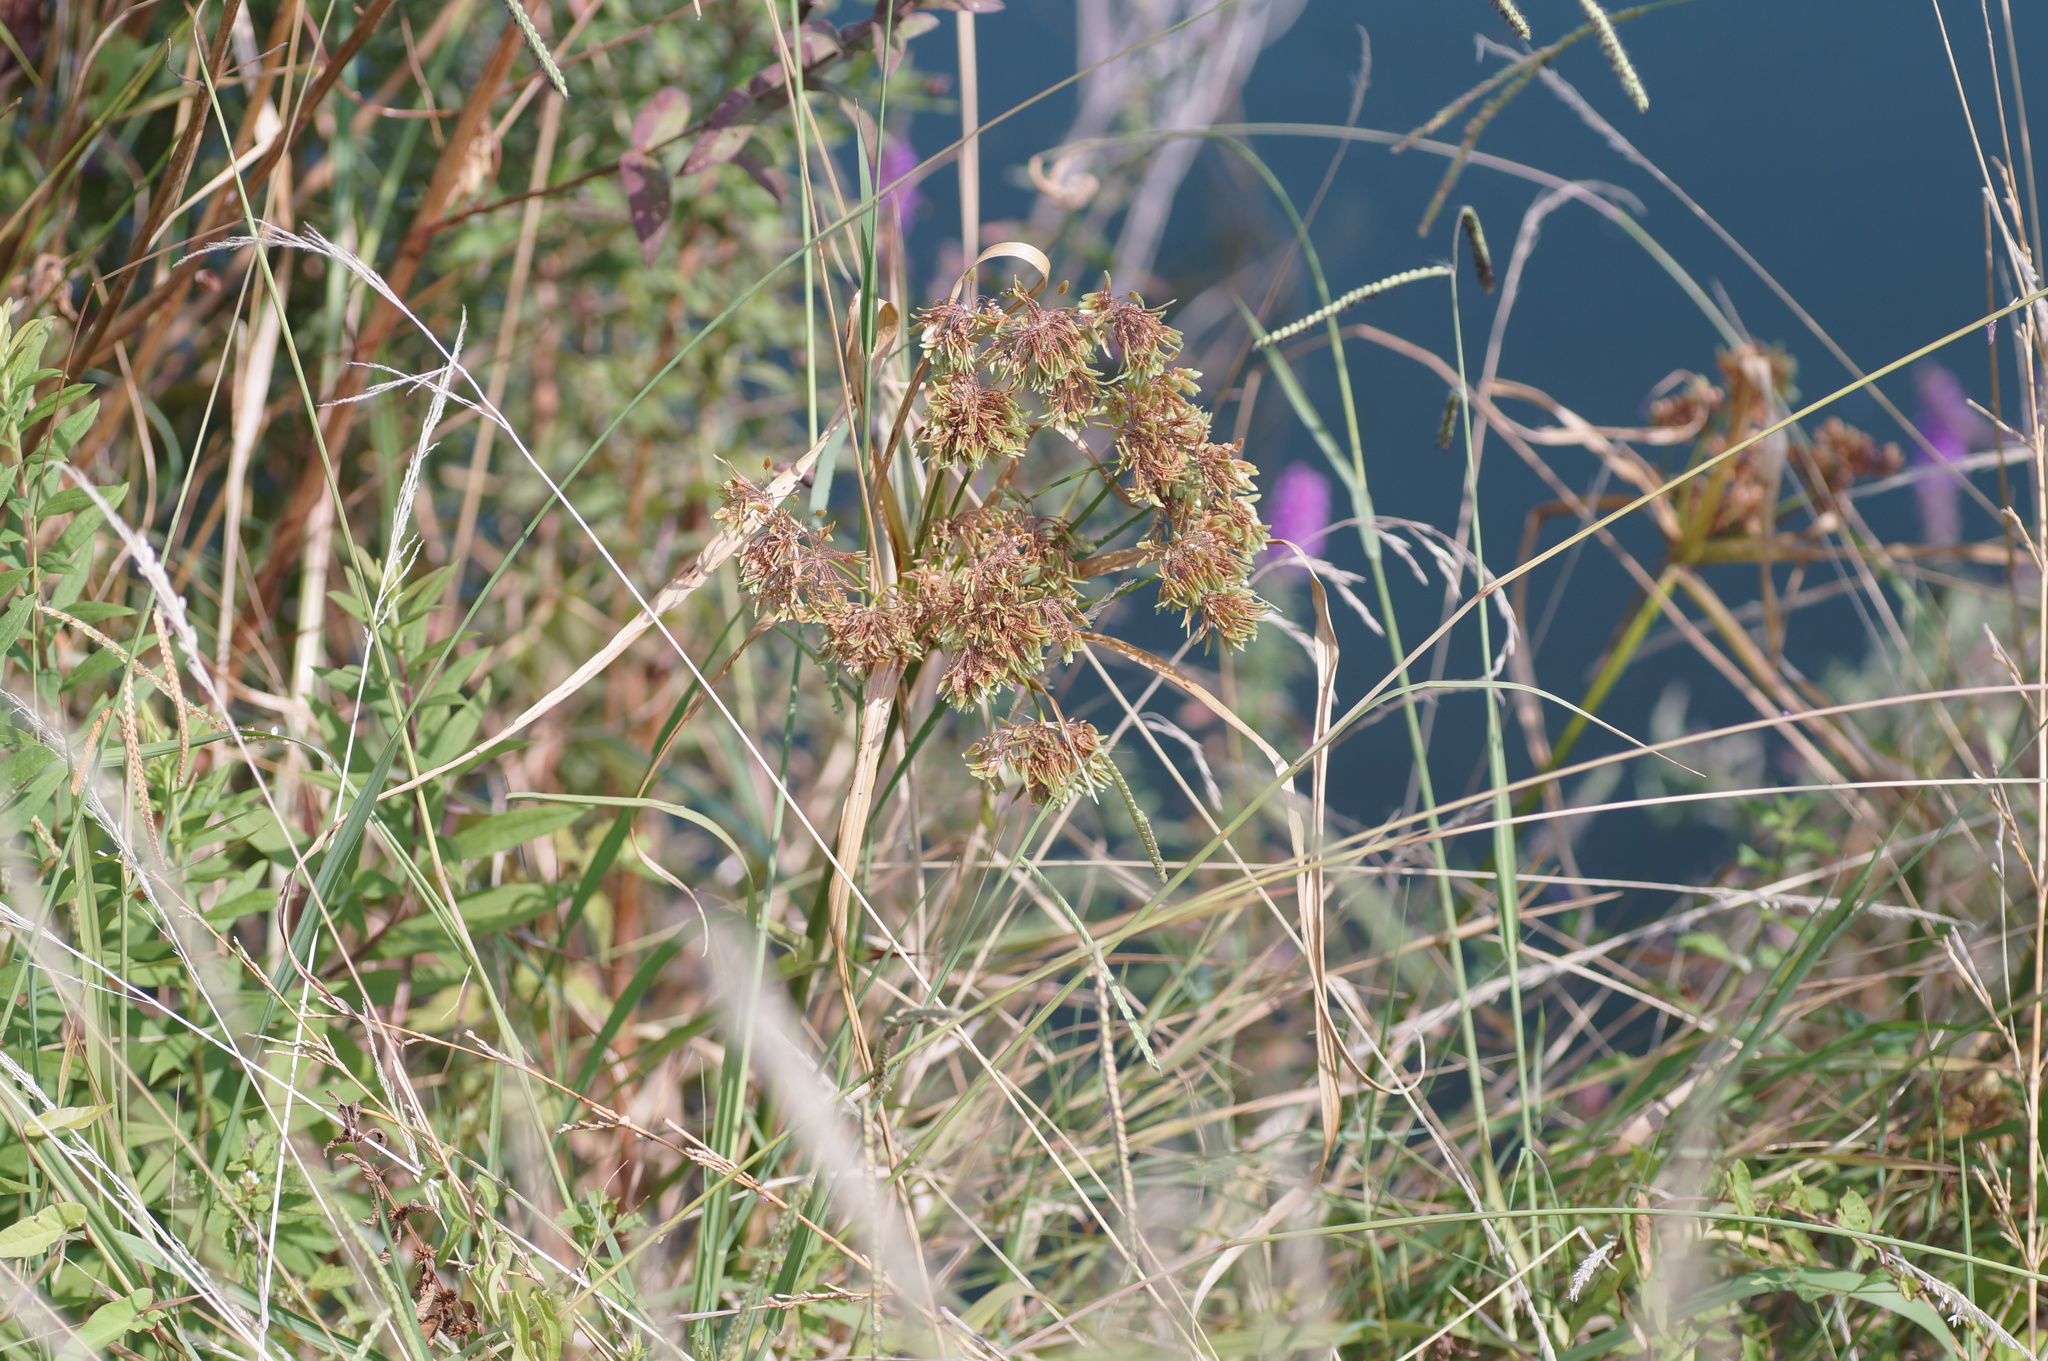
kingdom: Plantae
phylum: Tracheophyta
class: Liliopsida
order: Poales
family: Cyperaceae
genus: Cyperus
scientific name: Cyperus eragrostis
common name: Tall flatsedge
